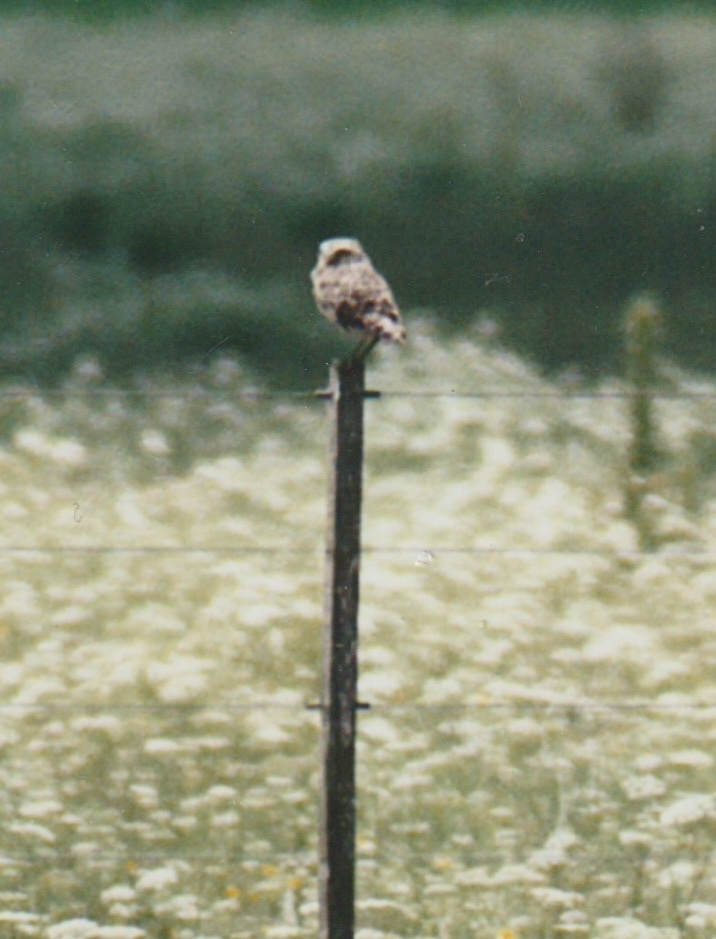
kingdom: Animalia
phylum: Chordata
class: Aves
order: Strigiformes
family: Strigidae
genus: Athene
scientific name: Athene cunicularia
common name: Burrowing owl
